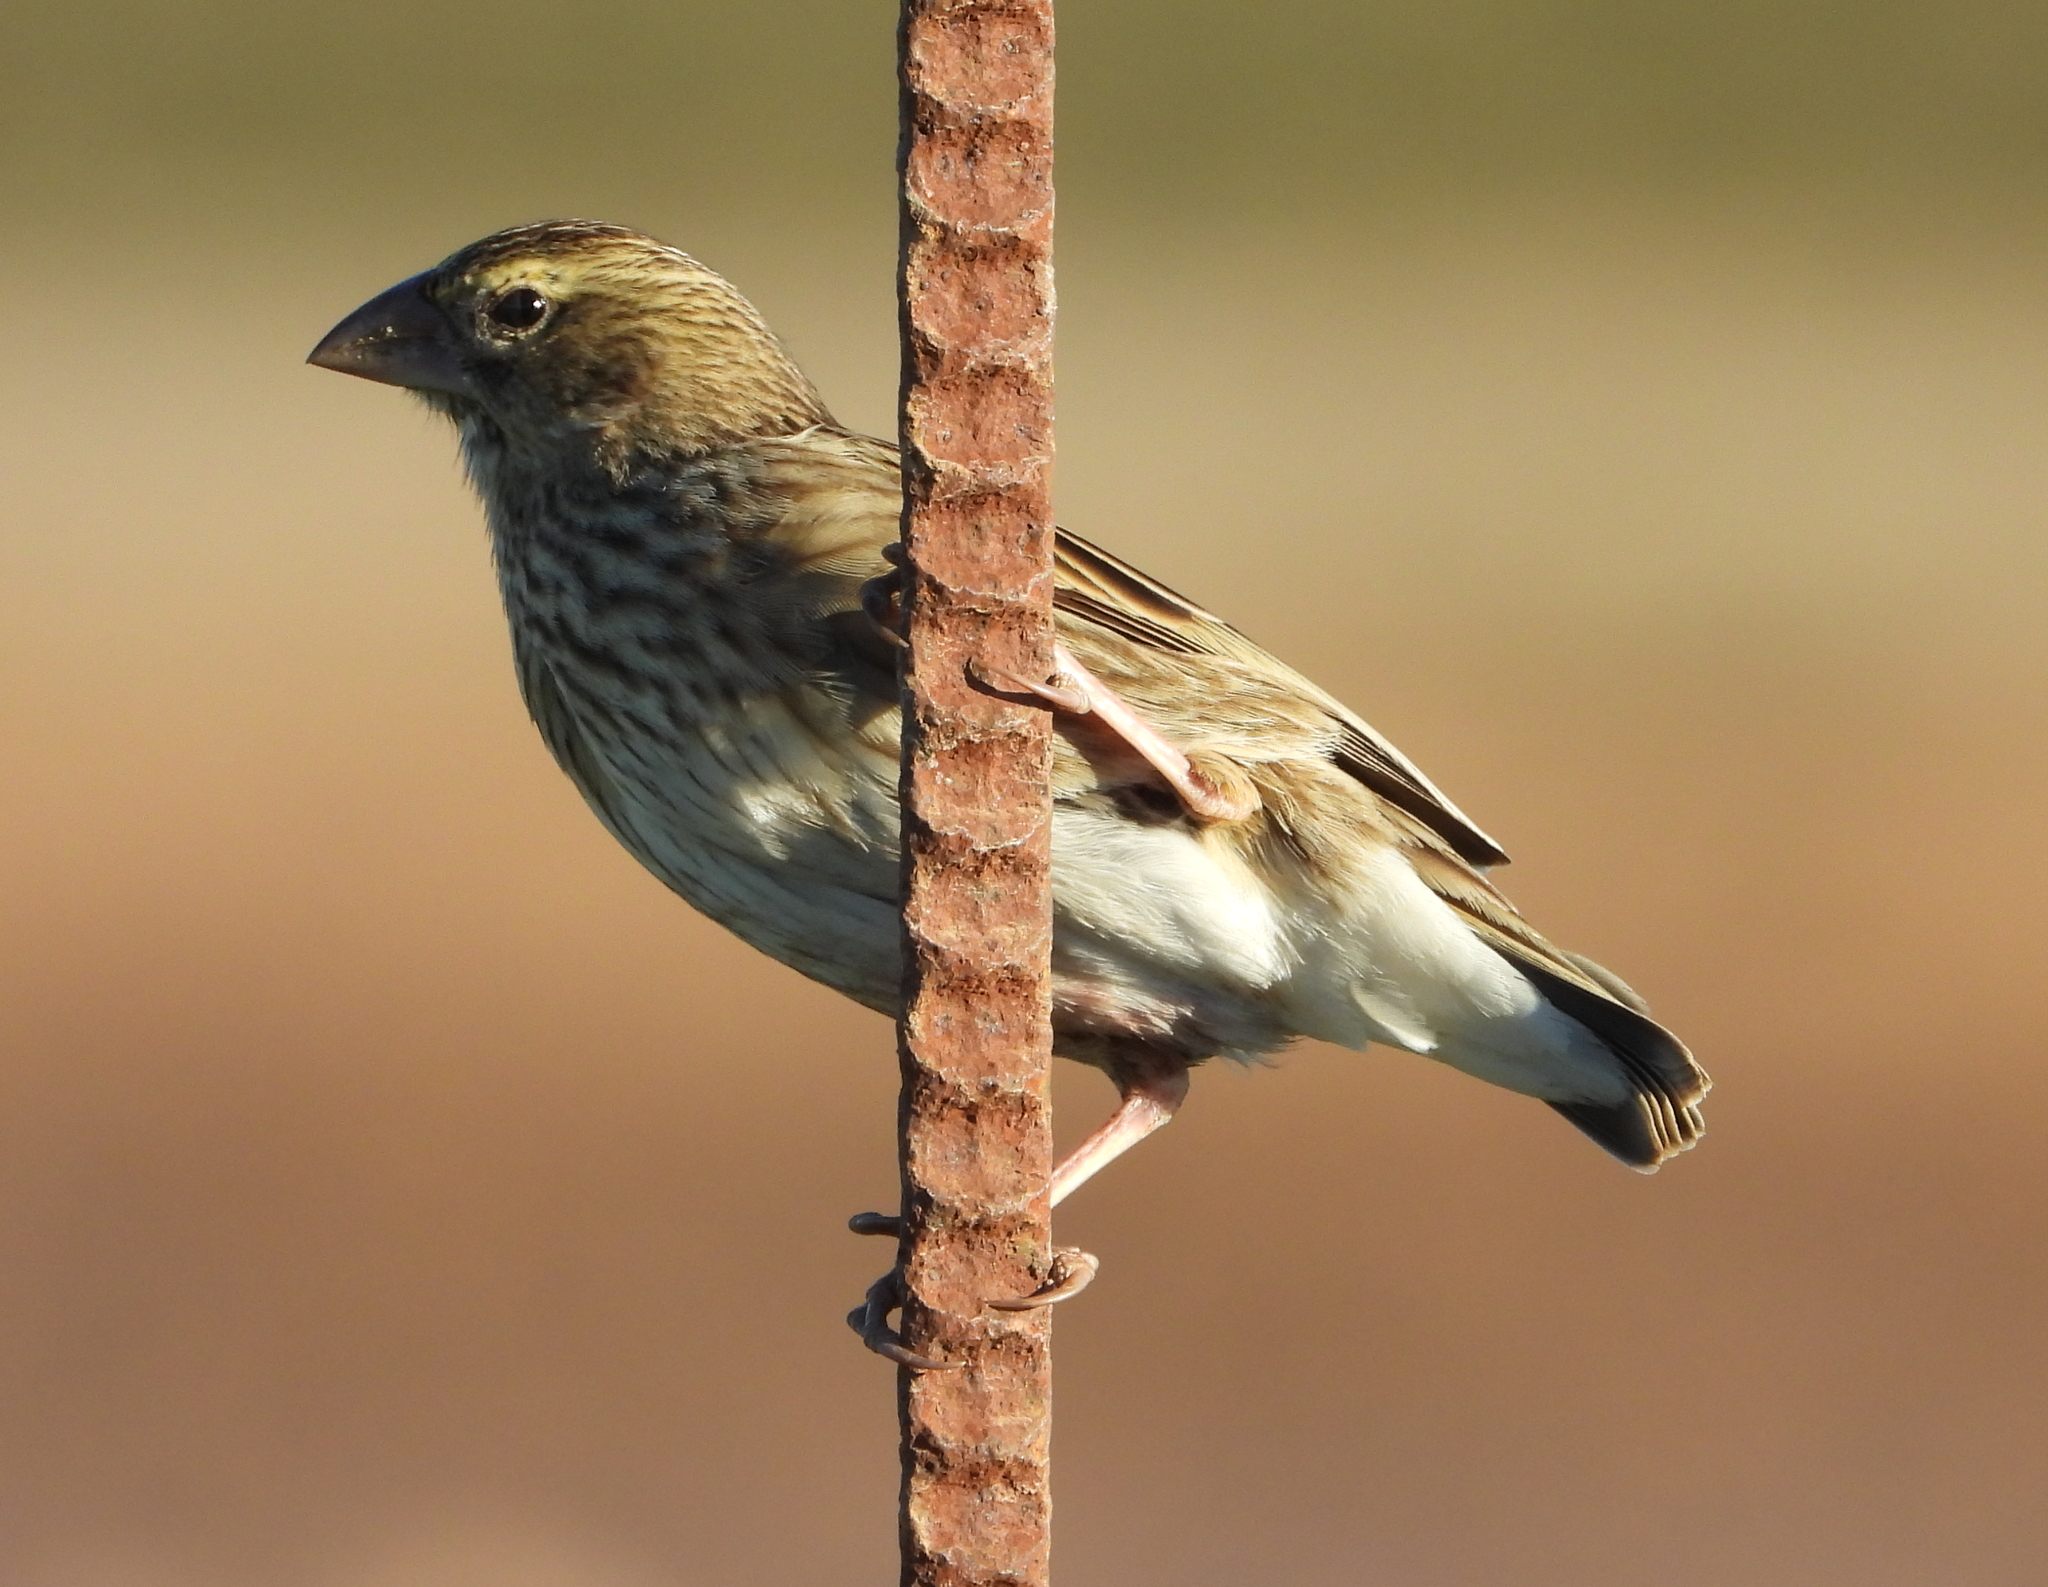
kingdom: Animalia
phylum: Chordata
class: Aves
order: Passeriformes
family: Ploceidae
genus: Euplectes
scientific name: Euplectes orix
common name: Southern red bishop
